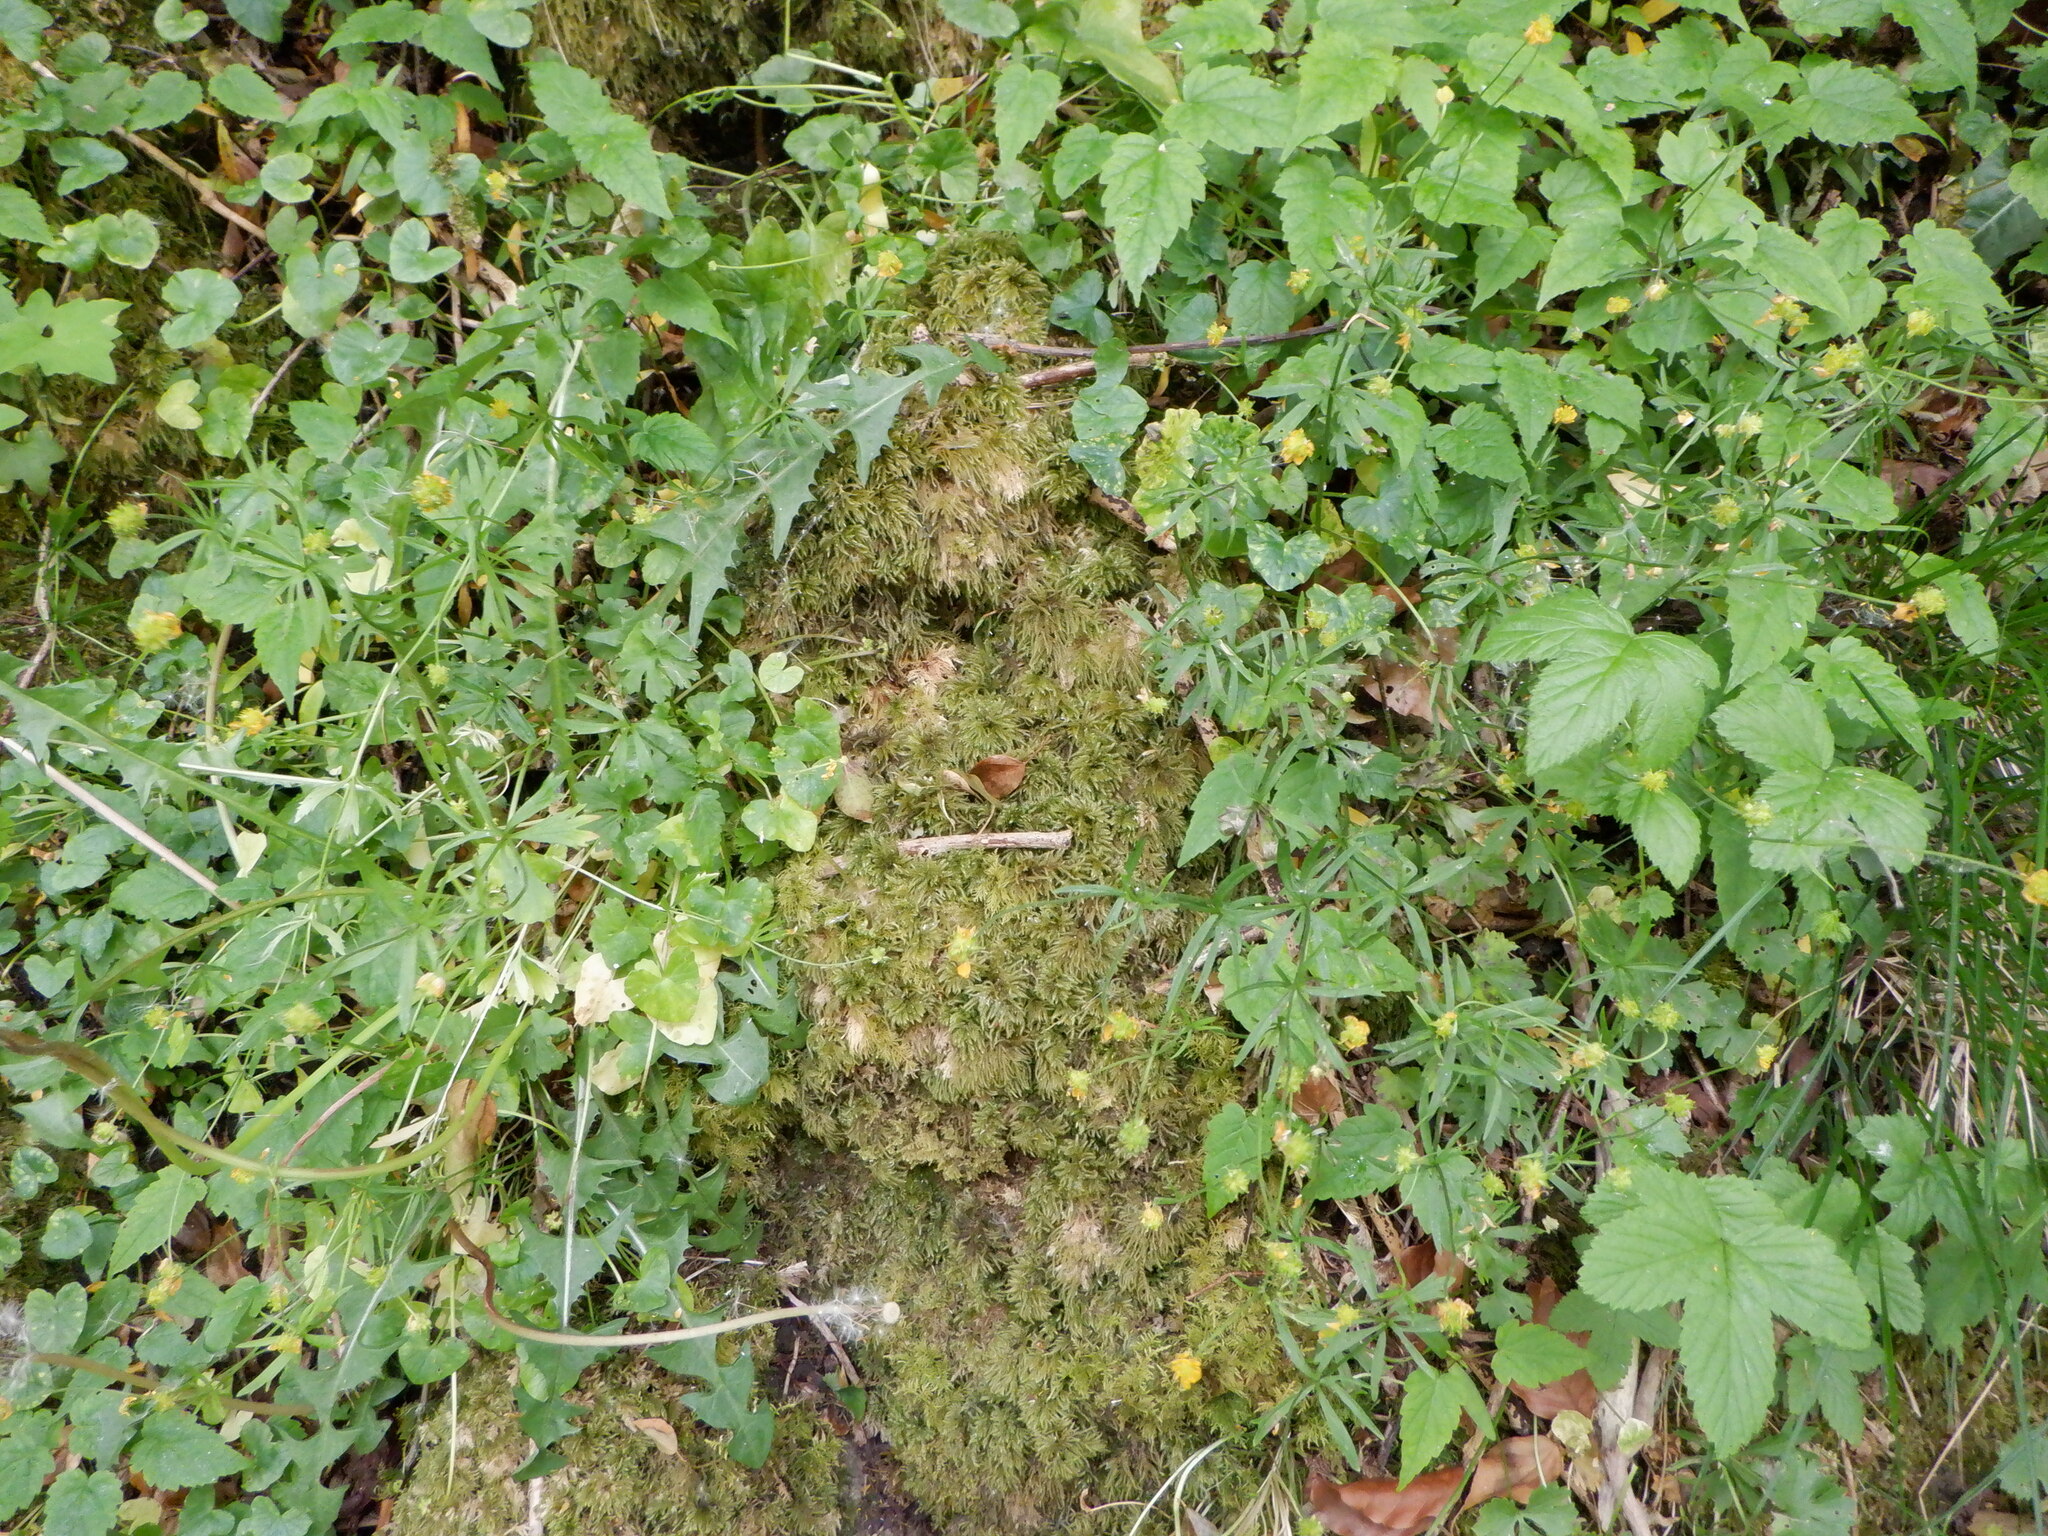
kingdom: Plantae
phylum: Tracheophyta
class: Magnoliopsida
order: Ranunculales
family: Ranunculaceae
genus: Ranunculus
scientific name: Ranunculus auricomus
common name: Goldilocks buttercup
